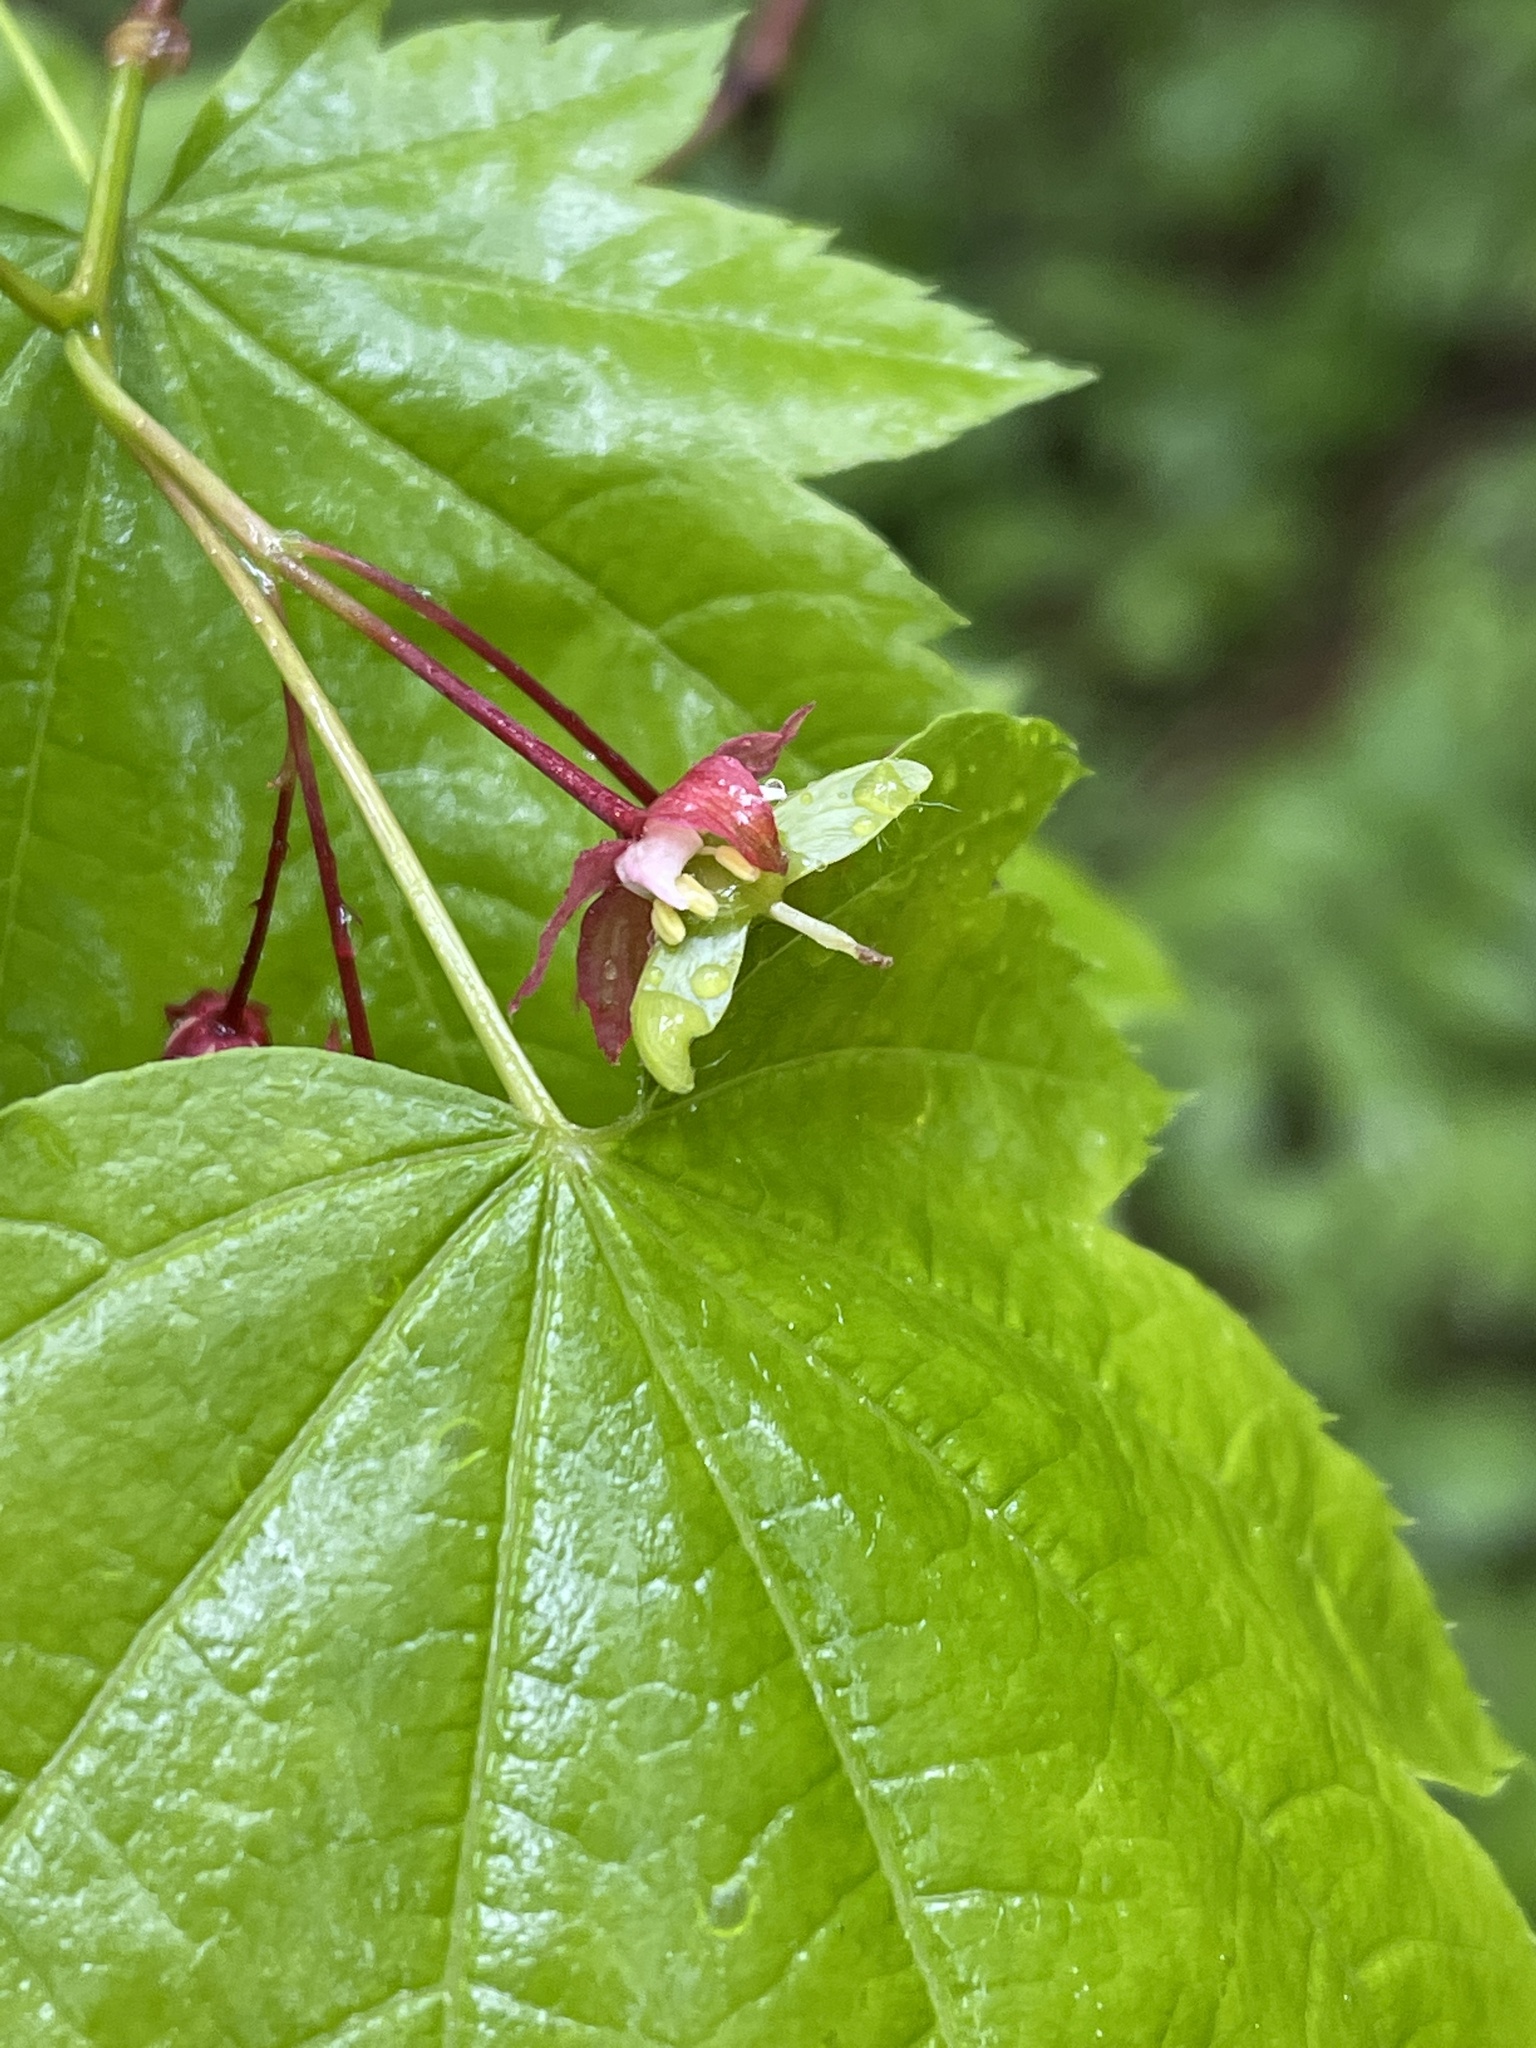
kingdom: Plantae
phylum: Tracheophyta
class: Magnoliopsida
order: Sapindales
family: Sapindaceae
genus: Acer
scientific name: Acer circinatum
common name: Vine maple
